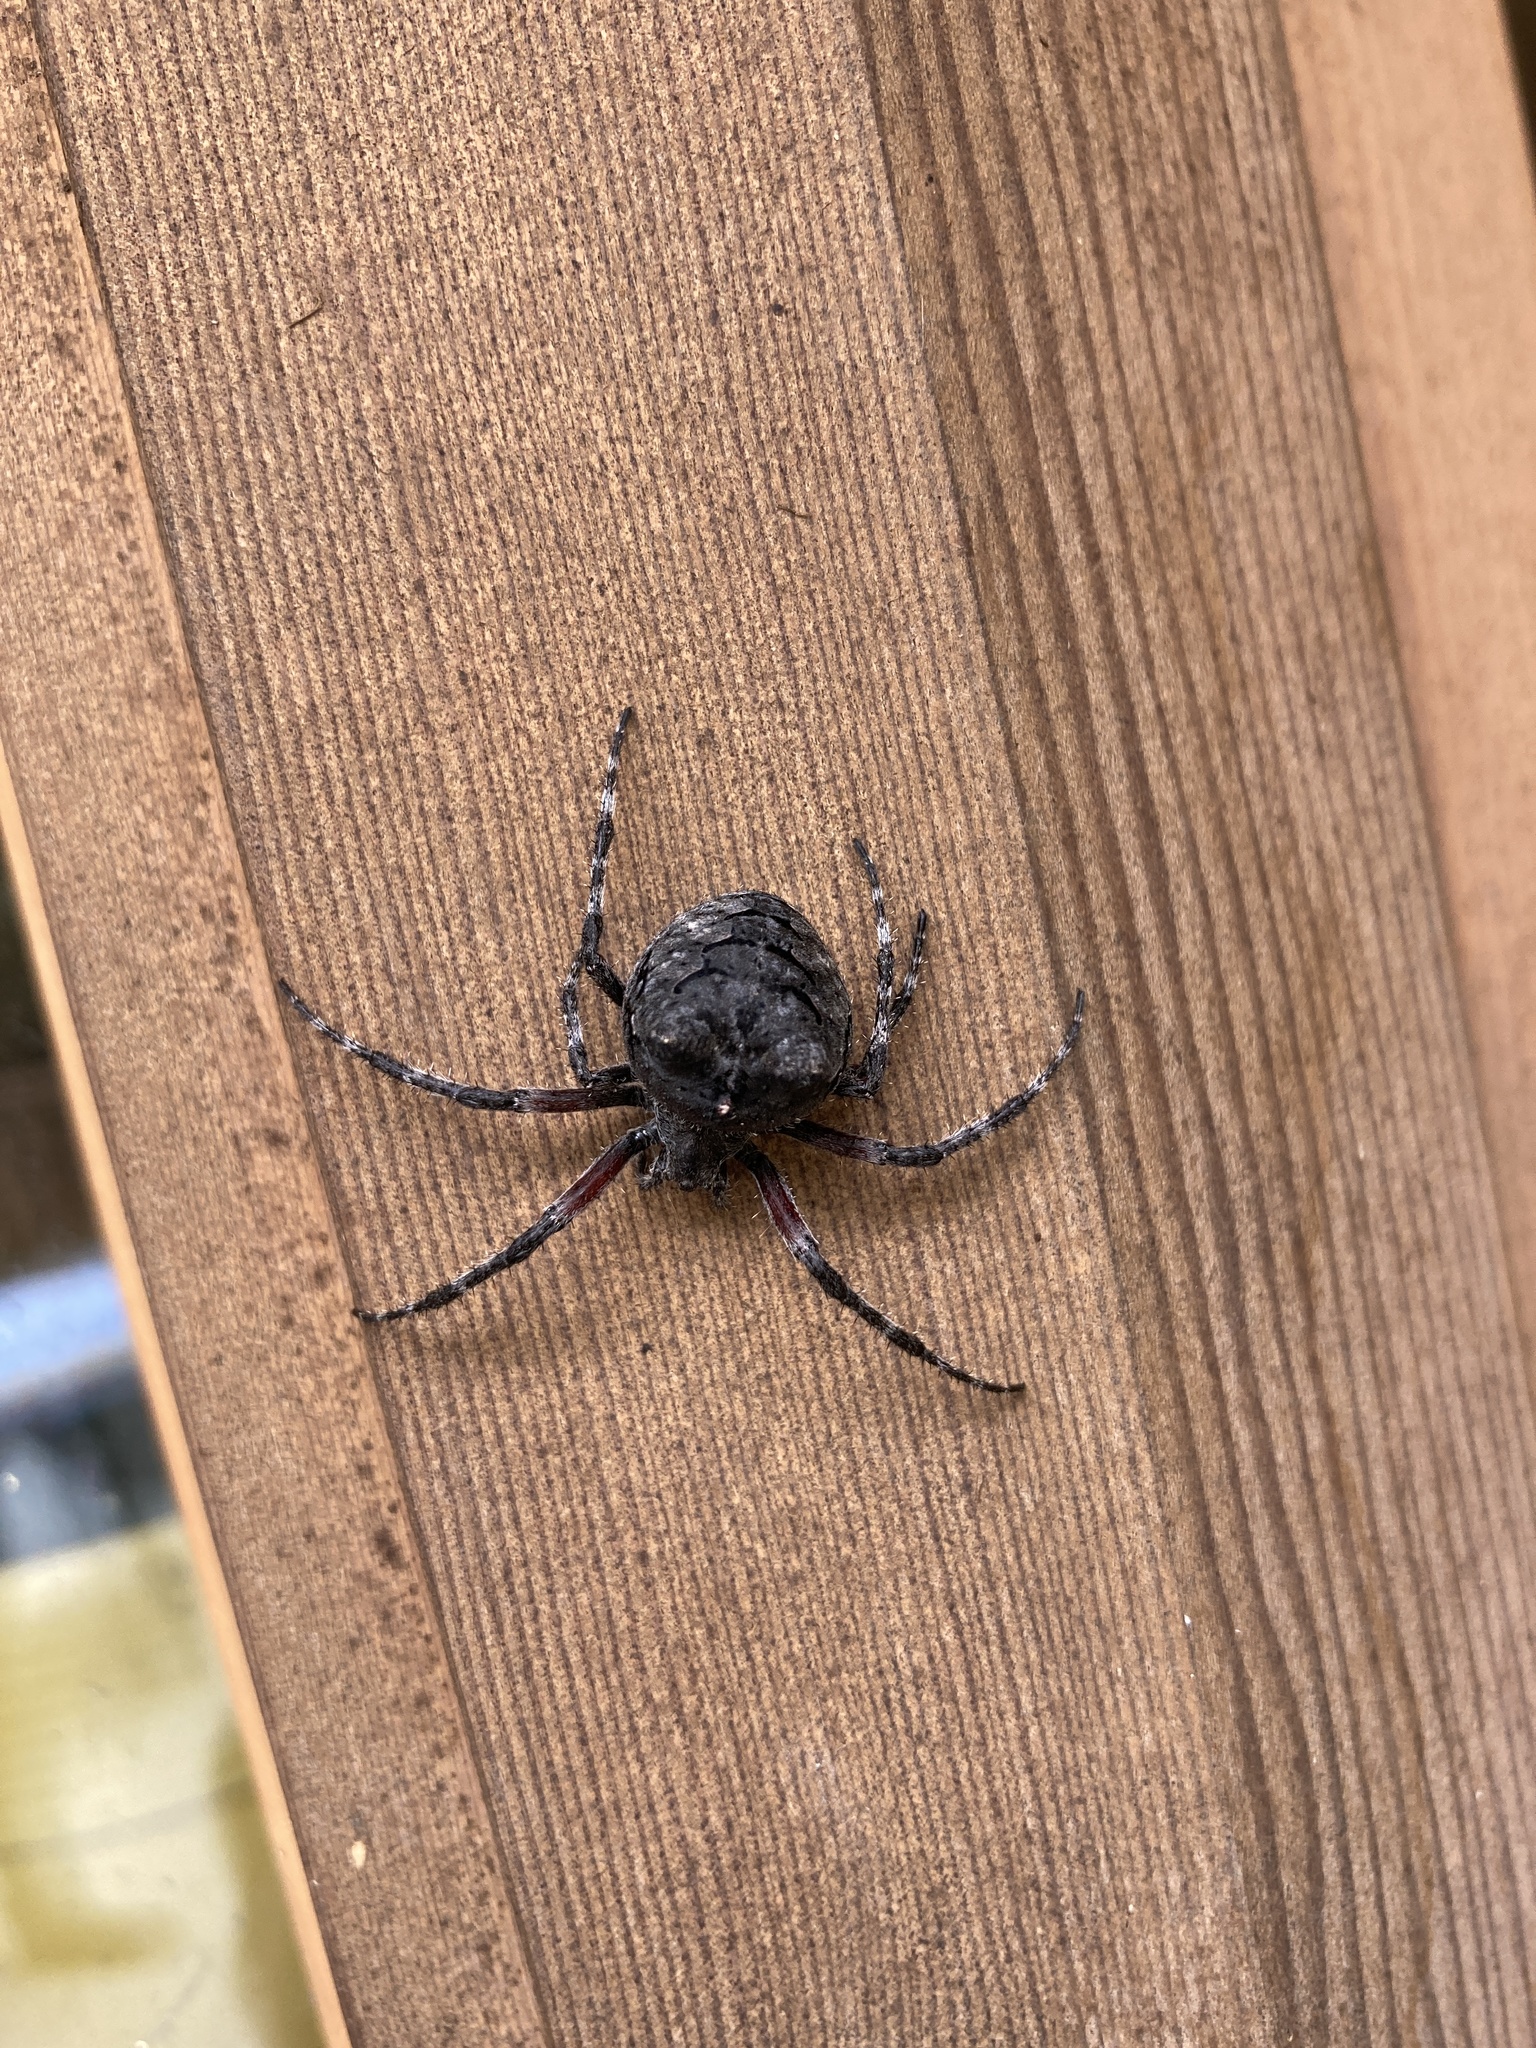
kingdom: Animalia
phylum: Arthropoda
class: Arachnida
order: Araneae
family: Araneidae
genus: Araneus
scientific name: Araneus saevus
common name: Fierce orbweaver
